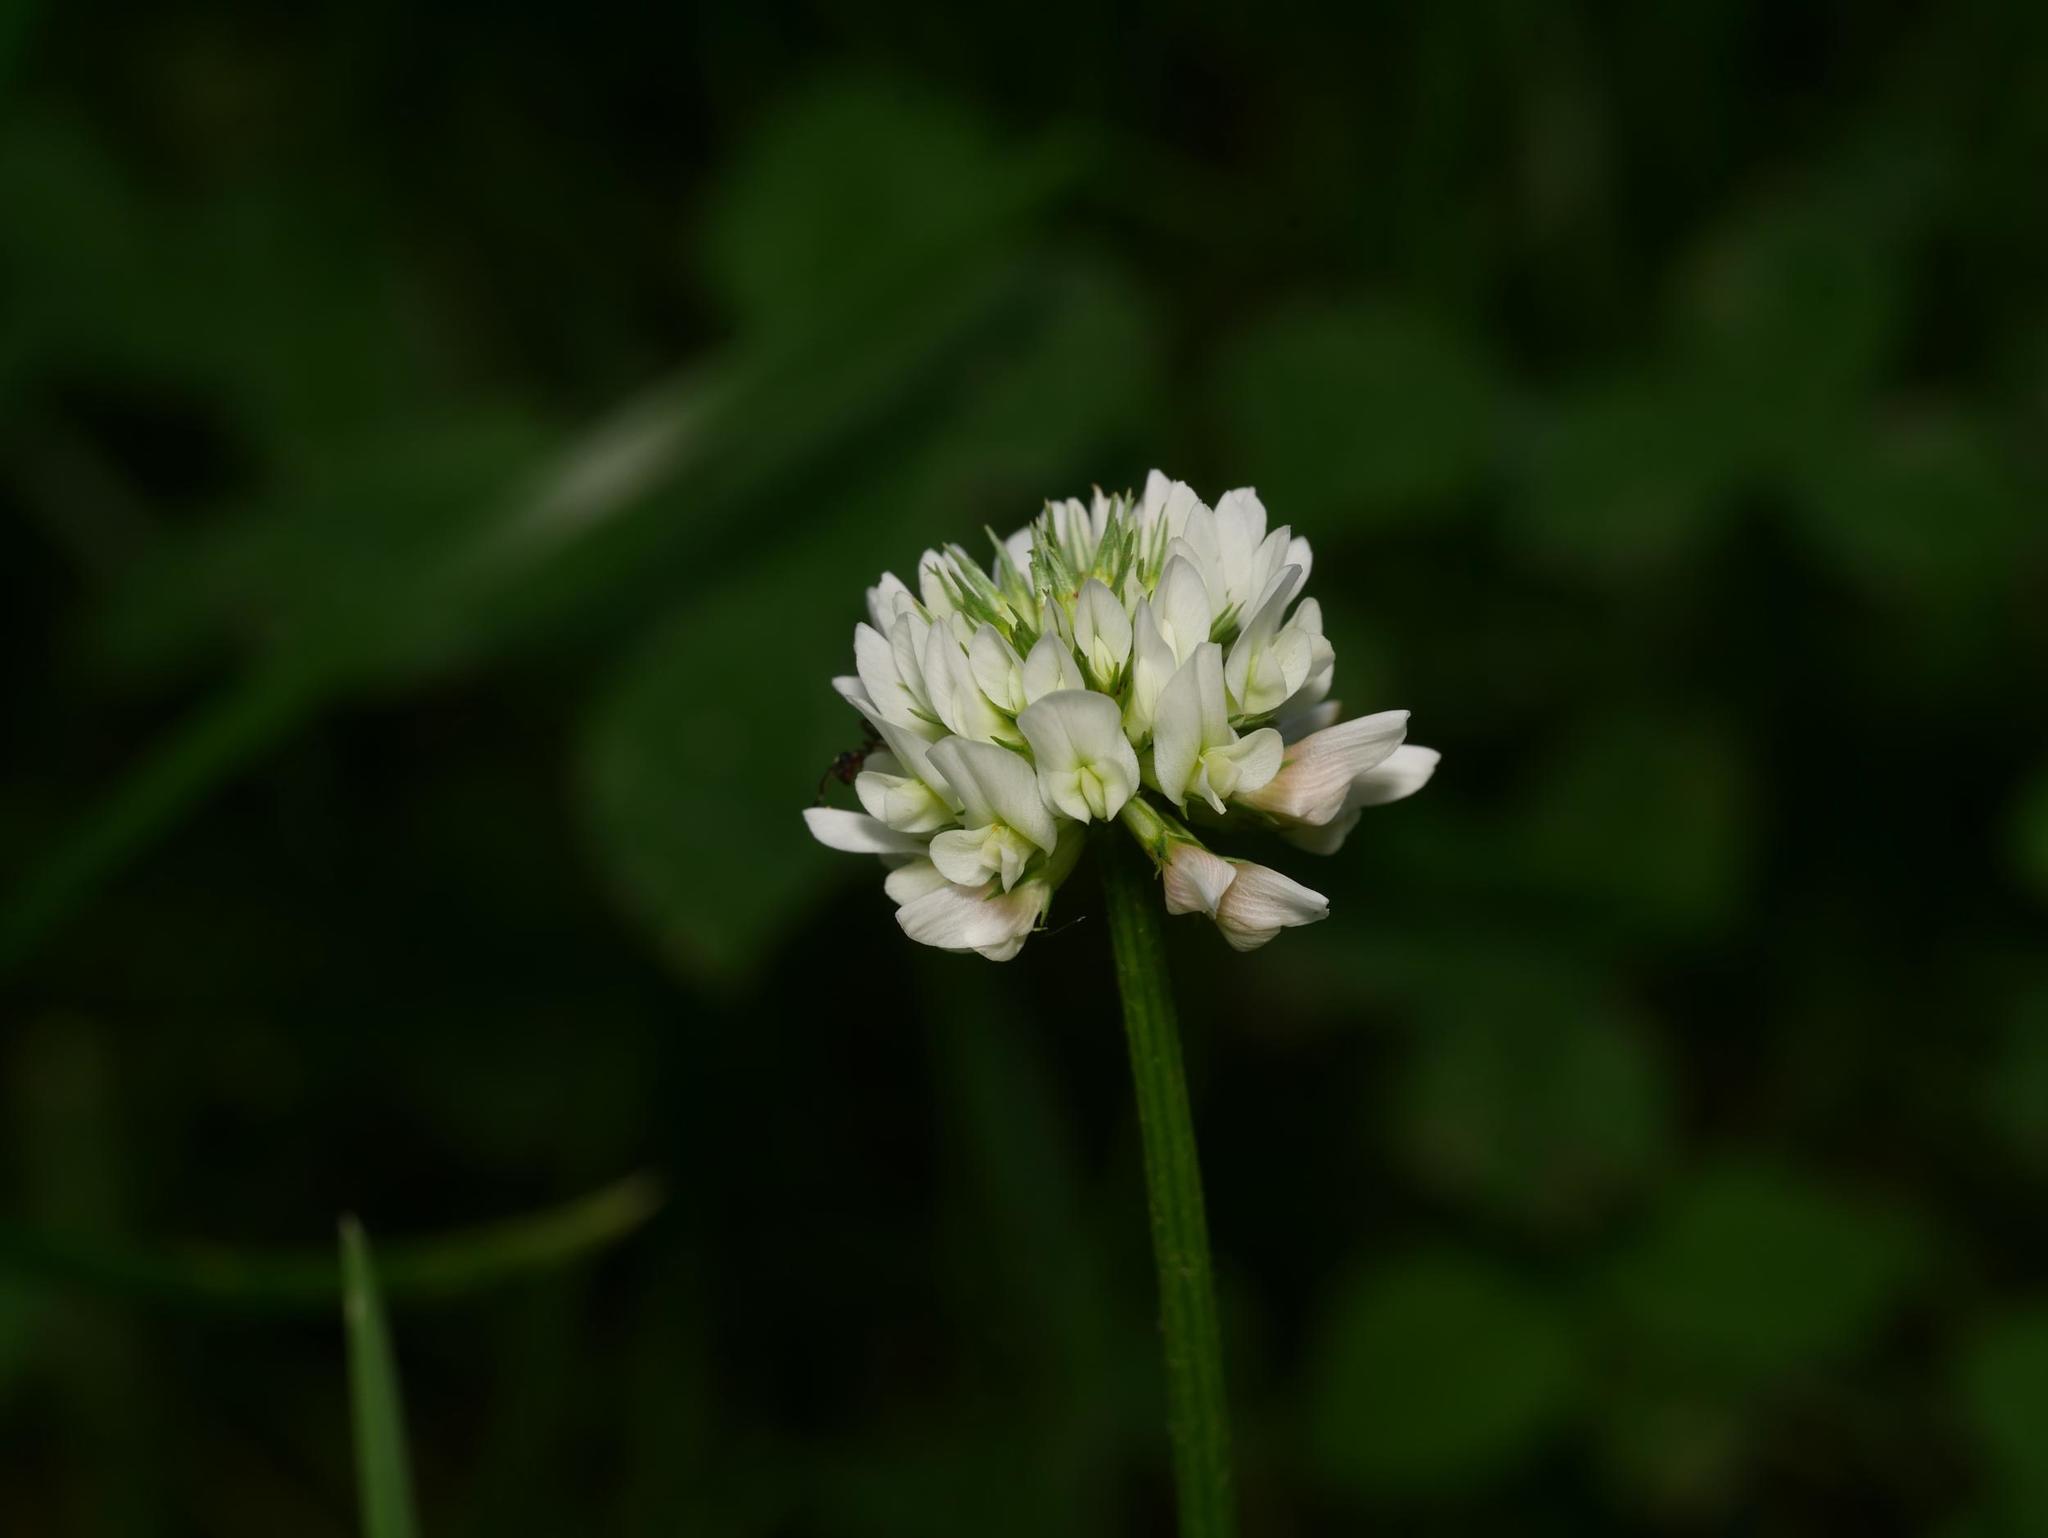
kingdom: Plantae
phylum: Tracheophyta
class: Magnoliopsida
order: Fabales
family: Fabaceae
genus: Trifolium
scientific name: Trifolium repens
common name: White clover
